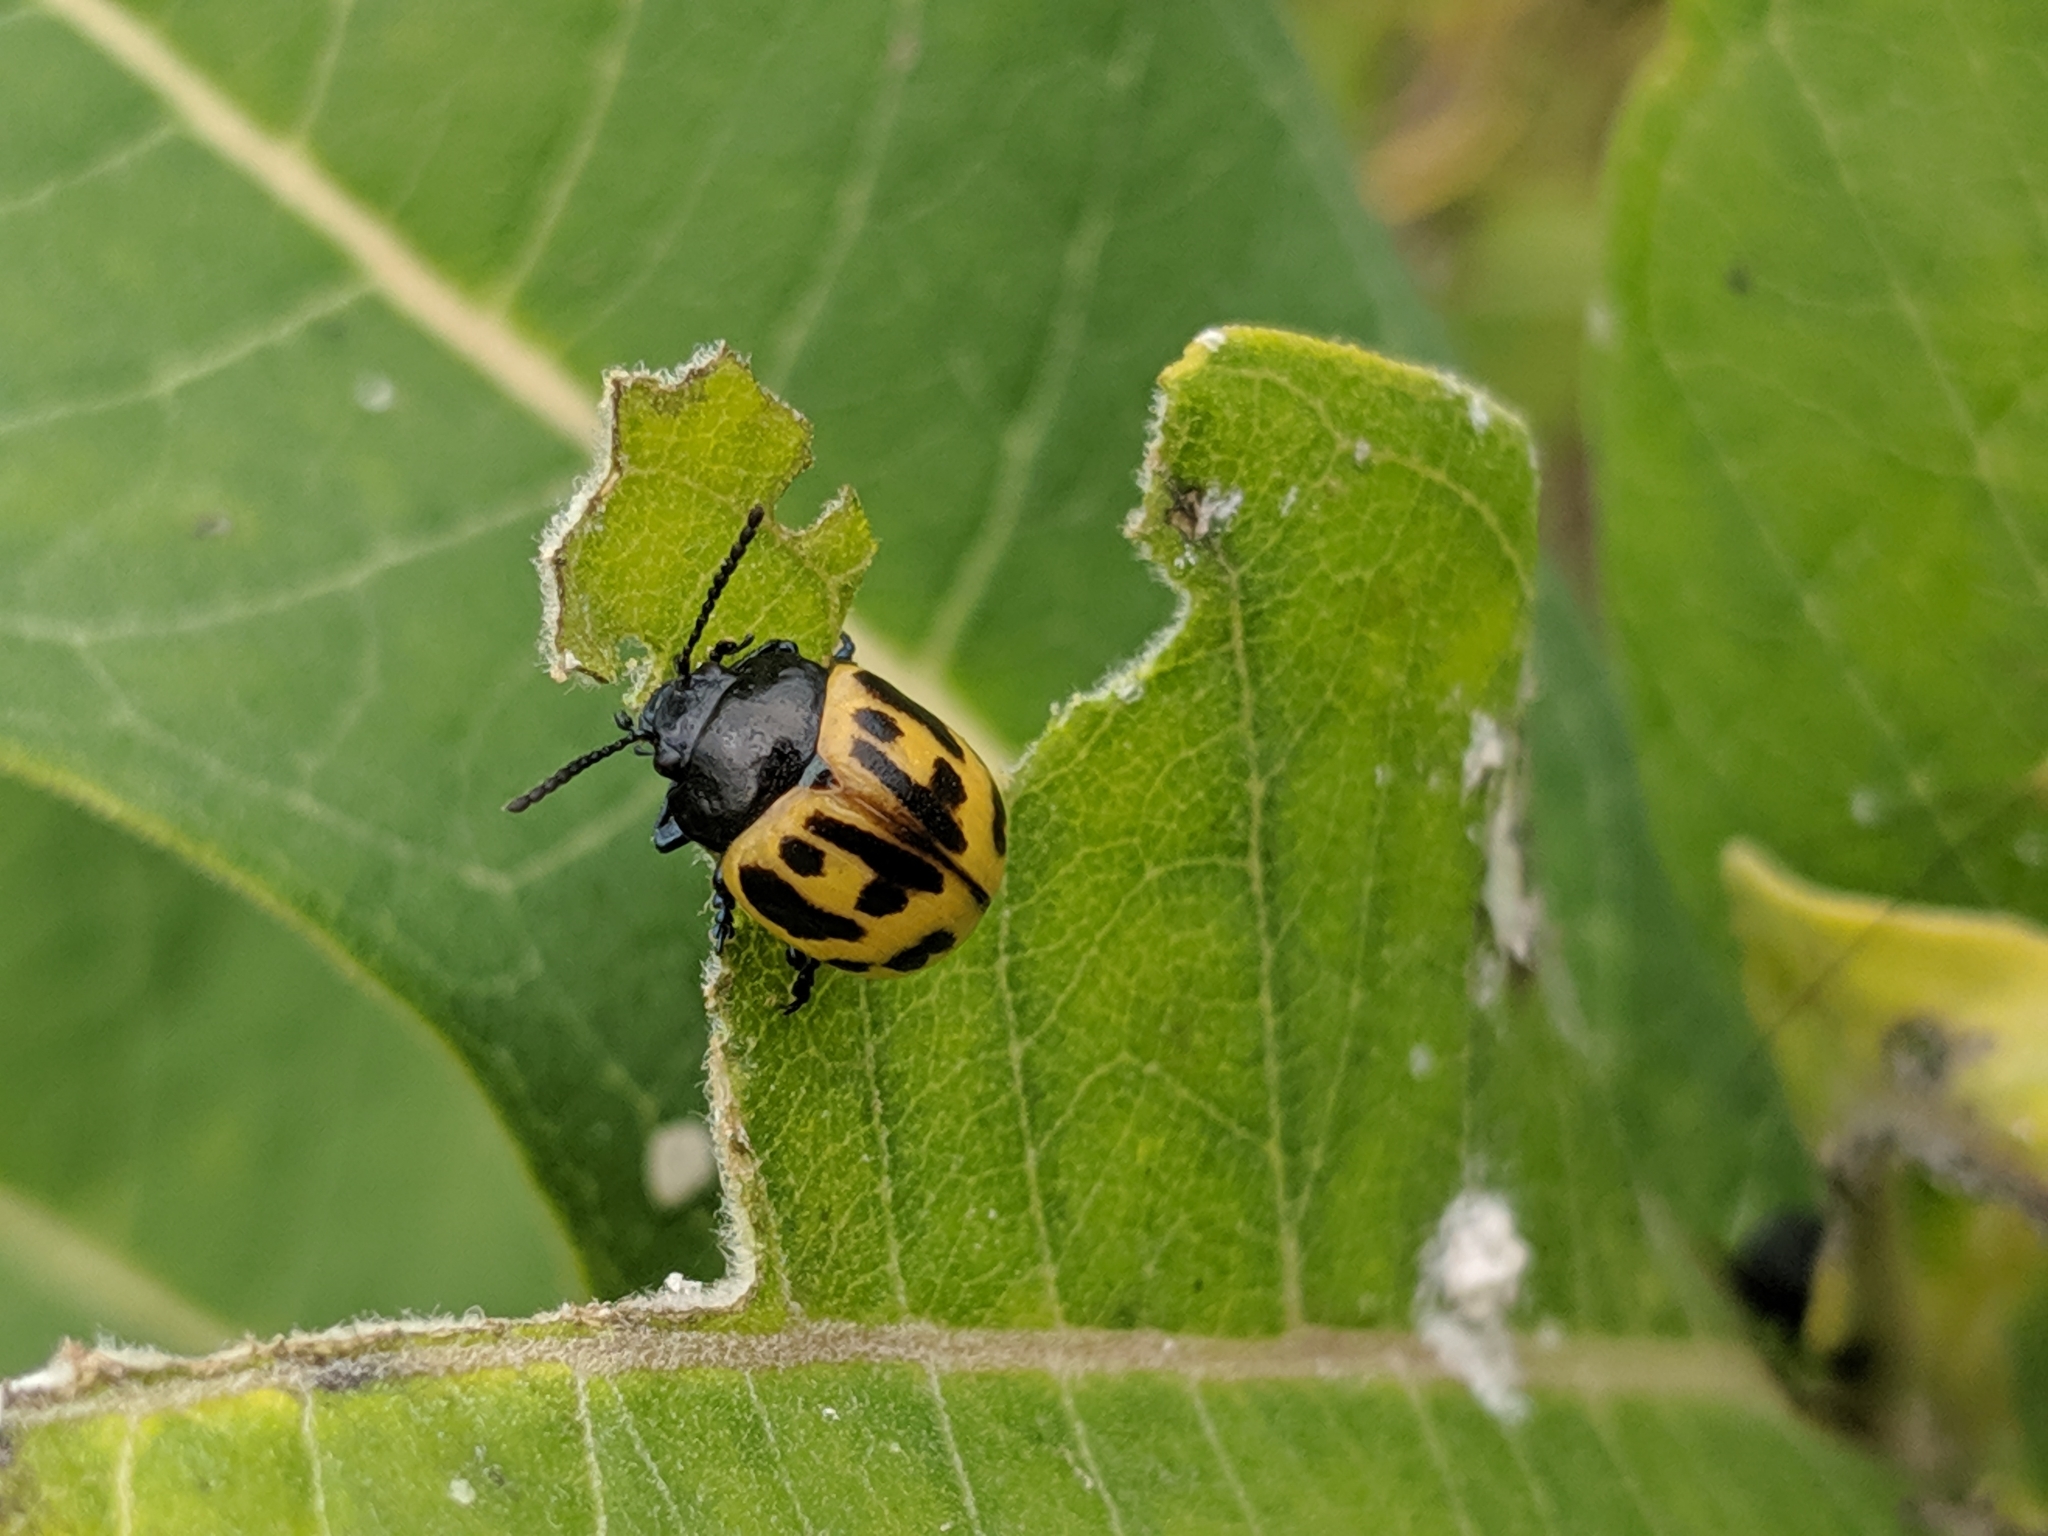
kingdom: Animalia
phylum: Arthropoda
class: Insecta
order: Coleoptera
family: Chrysomelidae
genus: Labidomera
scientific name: Labidomera clivicollis
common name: Swamp milkweed leaf beetle
